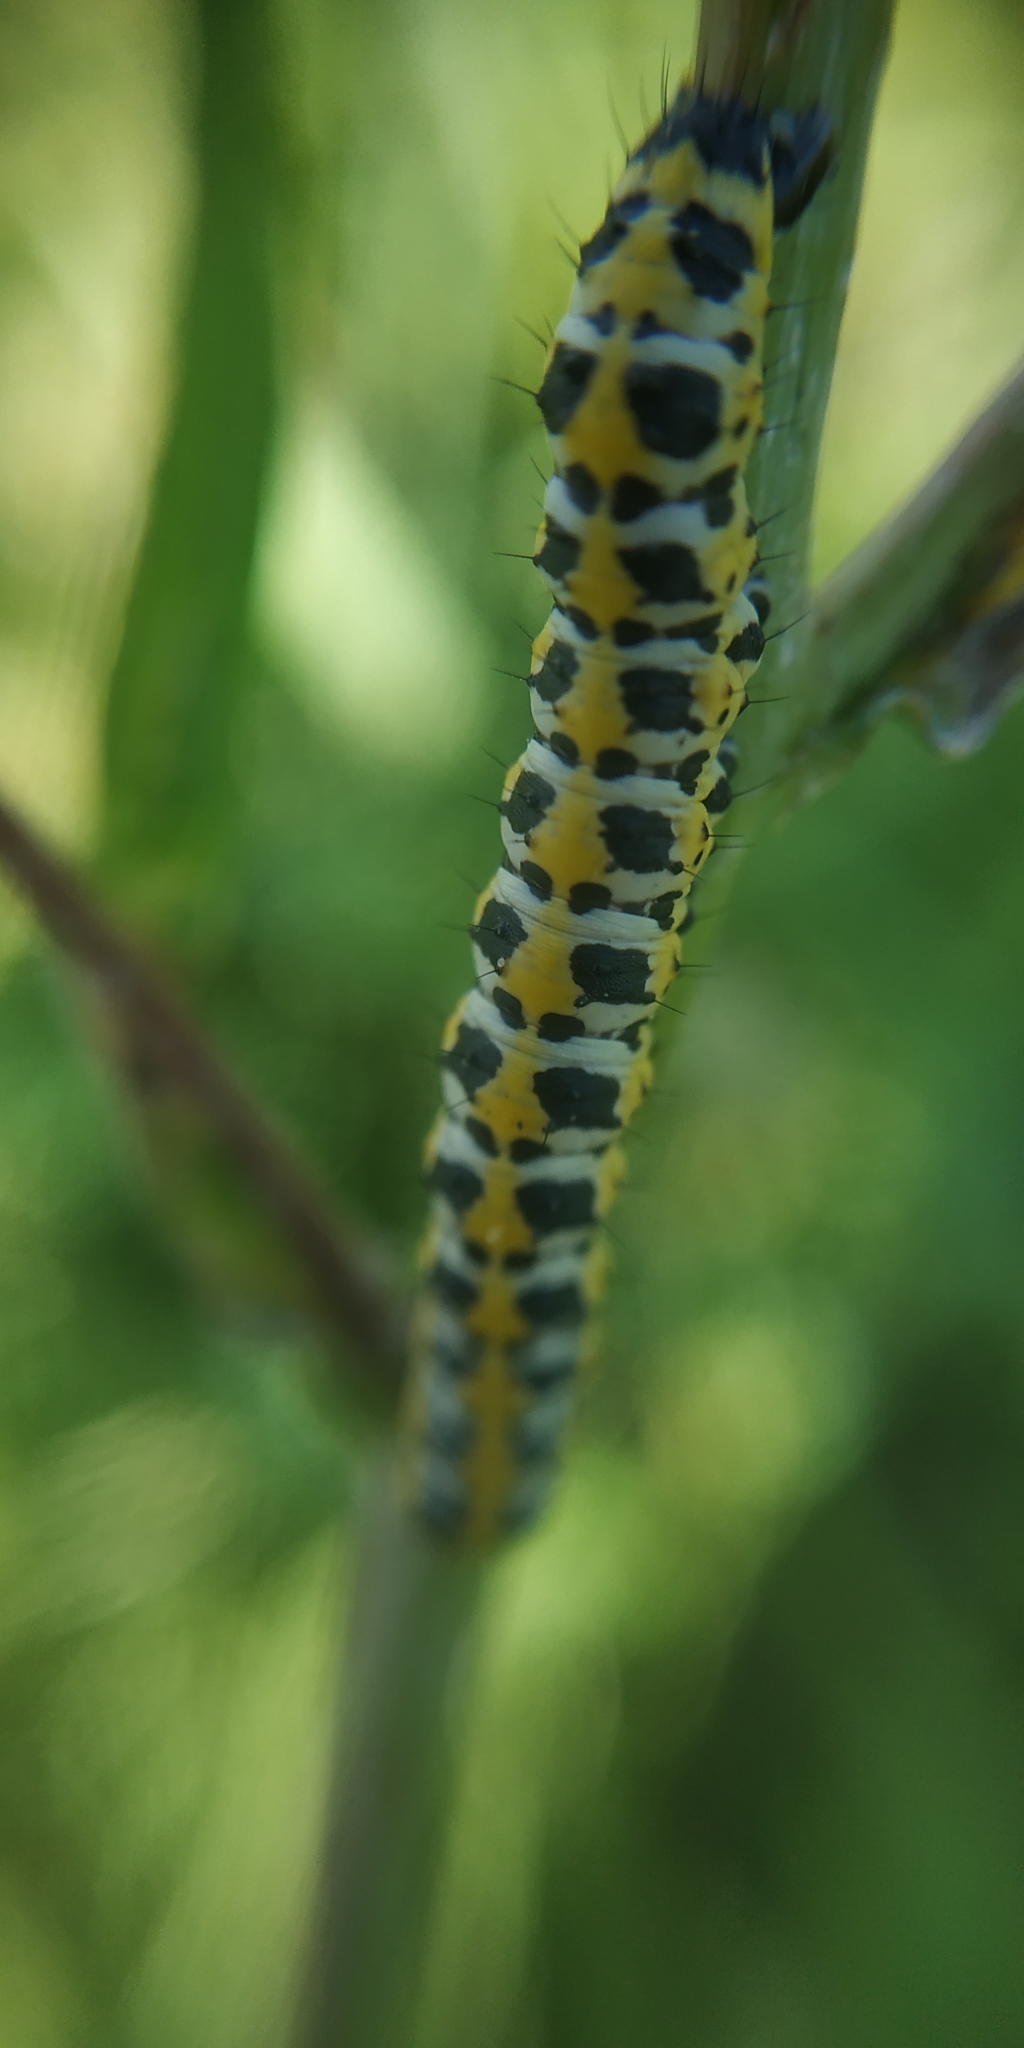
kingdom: Animalia
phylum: Arthropoda
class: Insecta
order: Lepidoptera
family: Noctuidae
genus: Cucullia
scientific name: Cucullia pustulata
